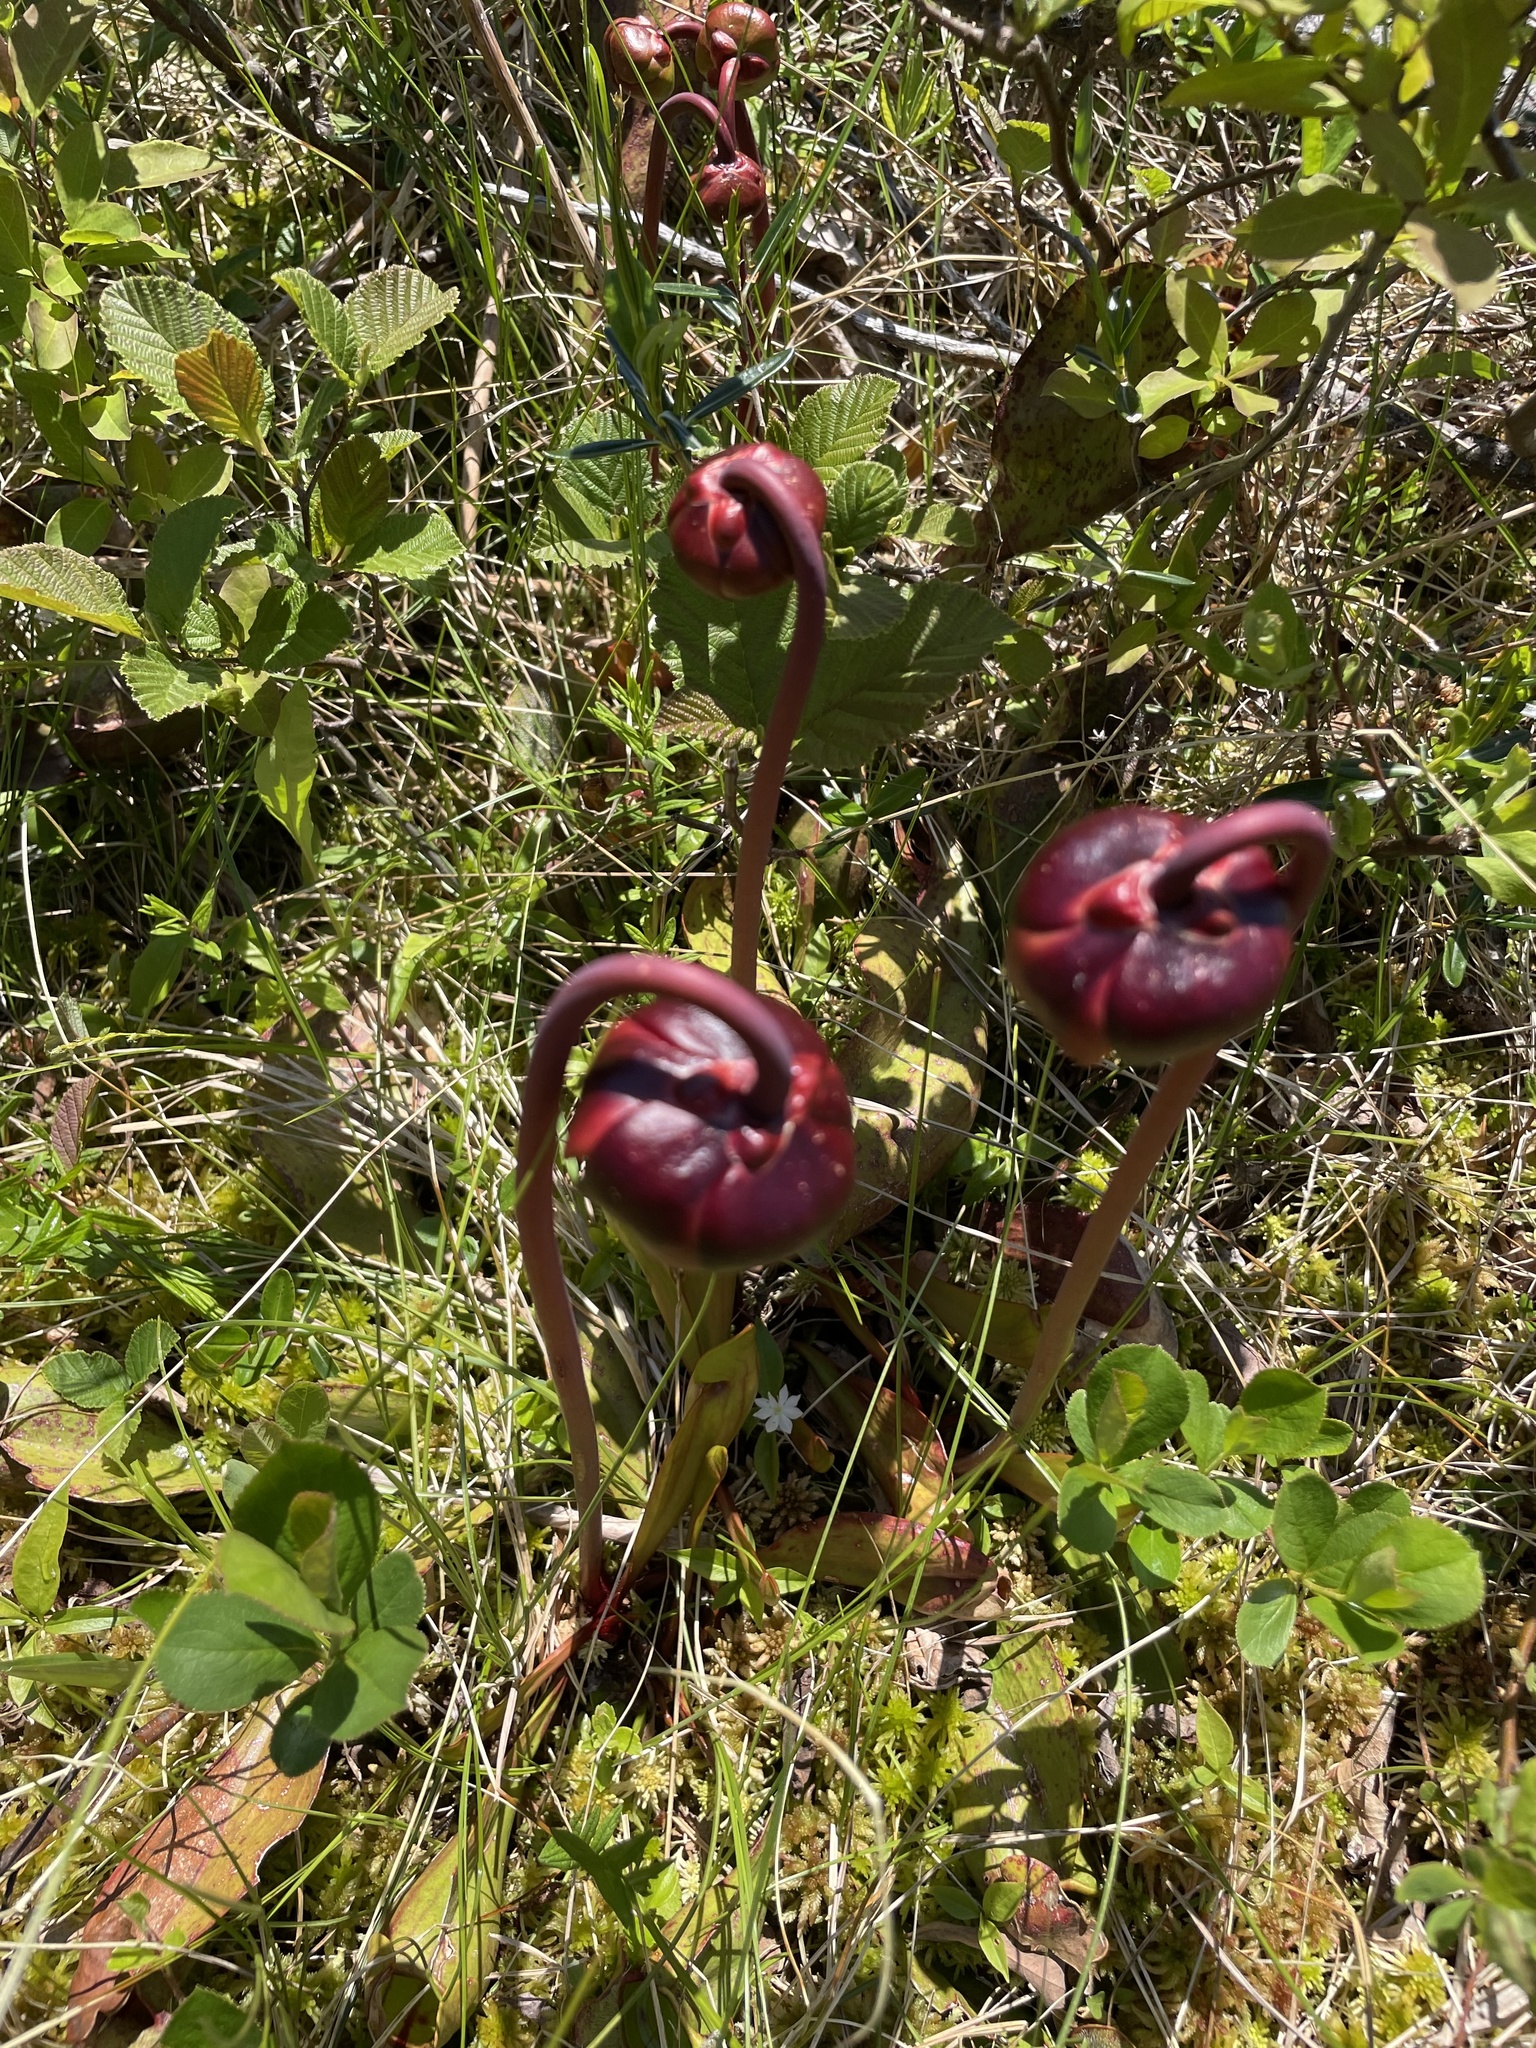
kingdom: Plantae
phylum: Tracheophyta
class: Magnoliopsida
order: Ericales
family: Sarraceniaceae
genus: Sarracenia
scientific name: Sarracenia purpurea
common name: Pitcherplant
